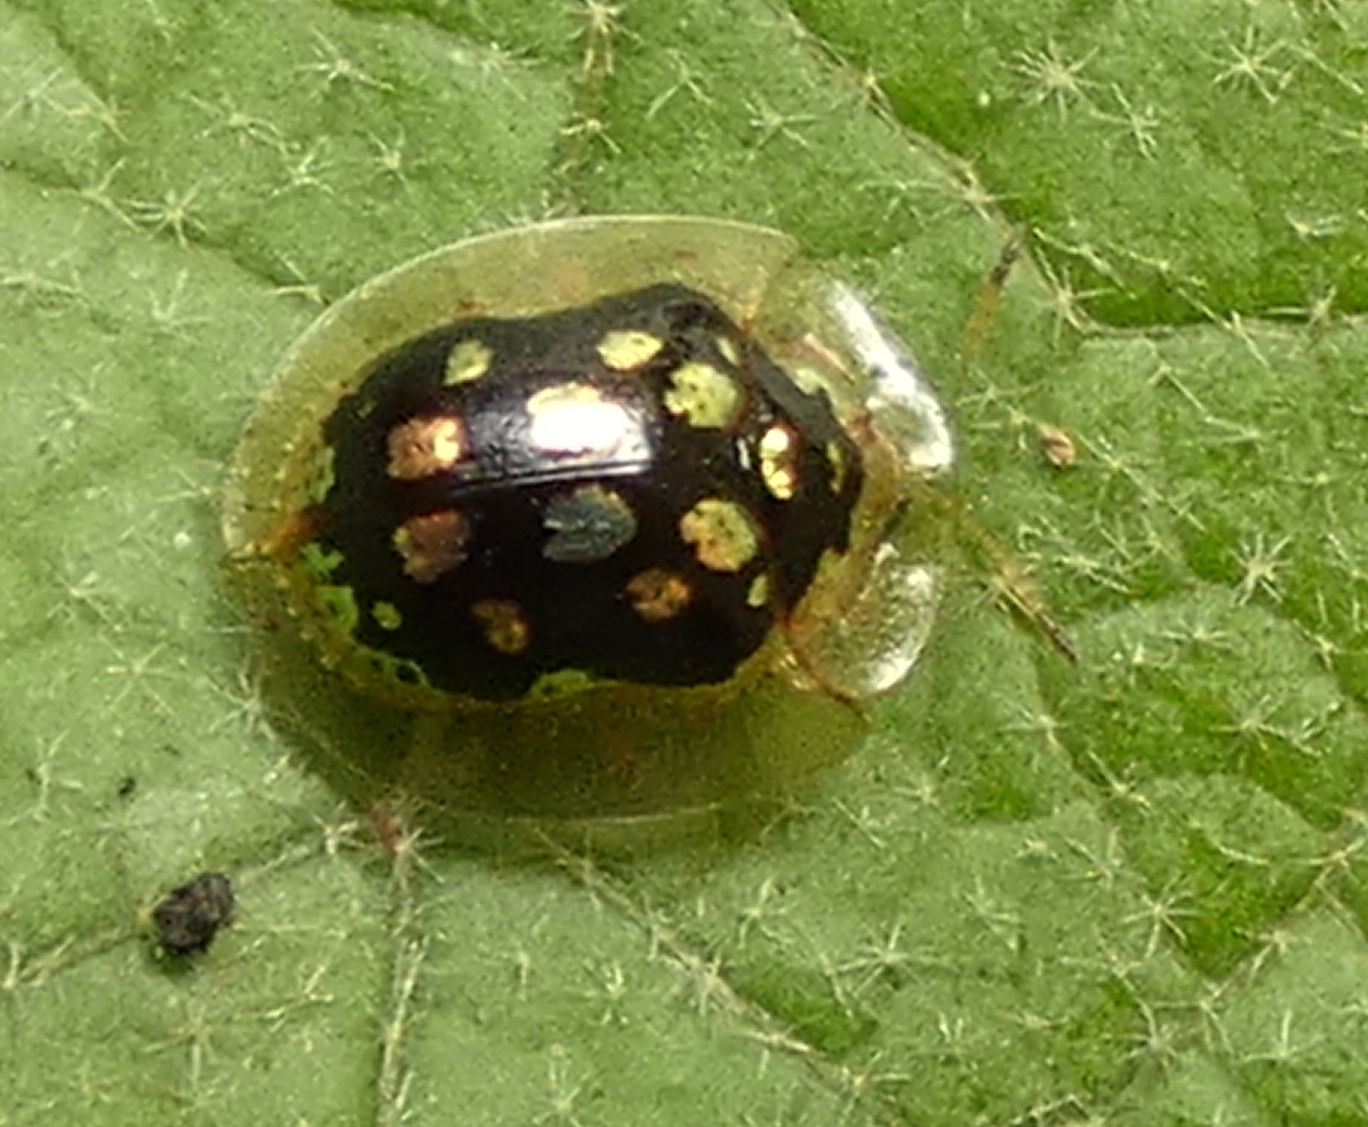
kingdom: Animalia
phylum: Arthropoda
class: Insecta
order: Coleoptera
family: Chrysomelidae
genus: Plagiometriona
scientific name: Plagiometriona microcera
